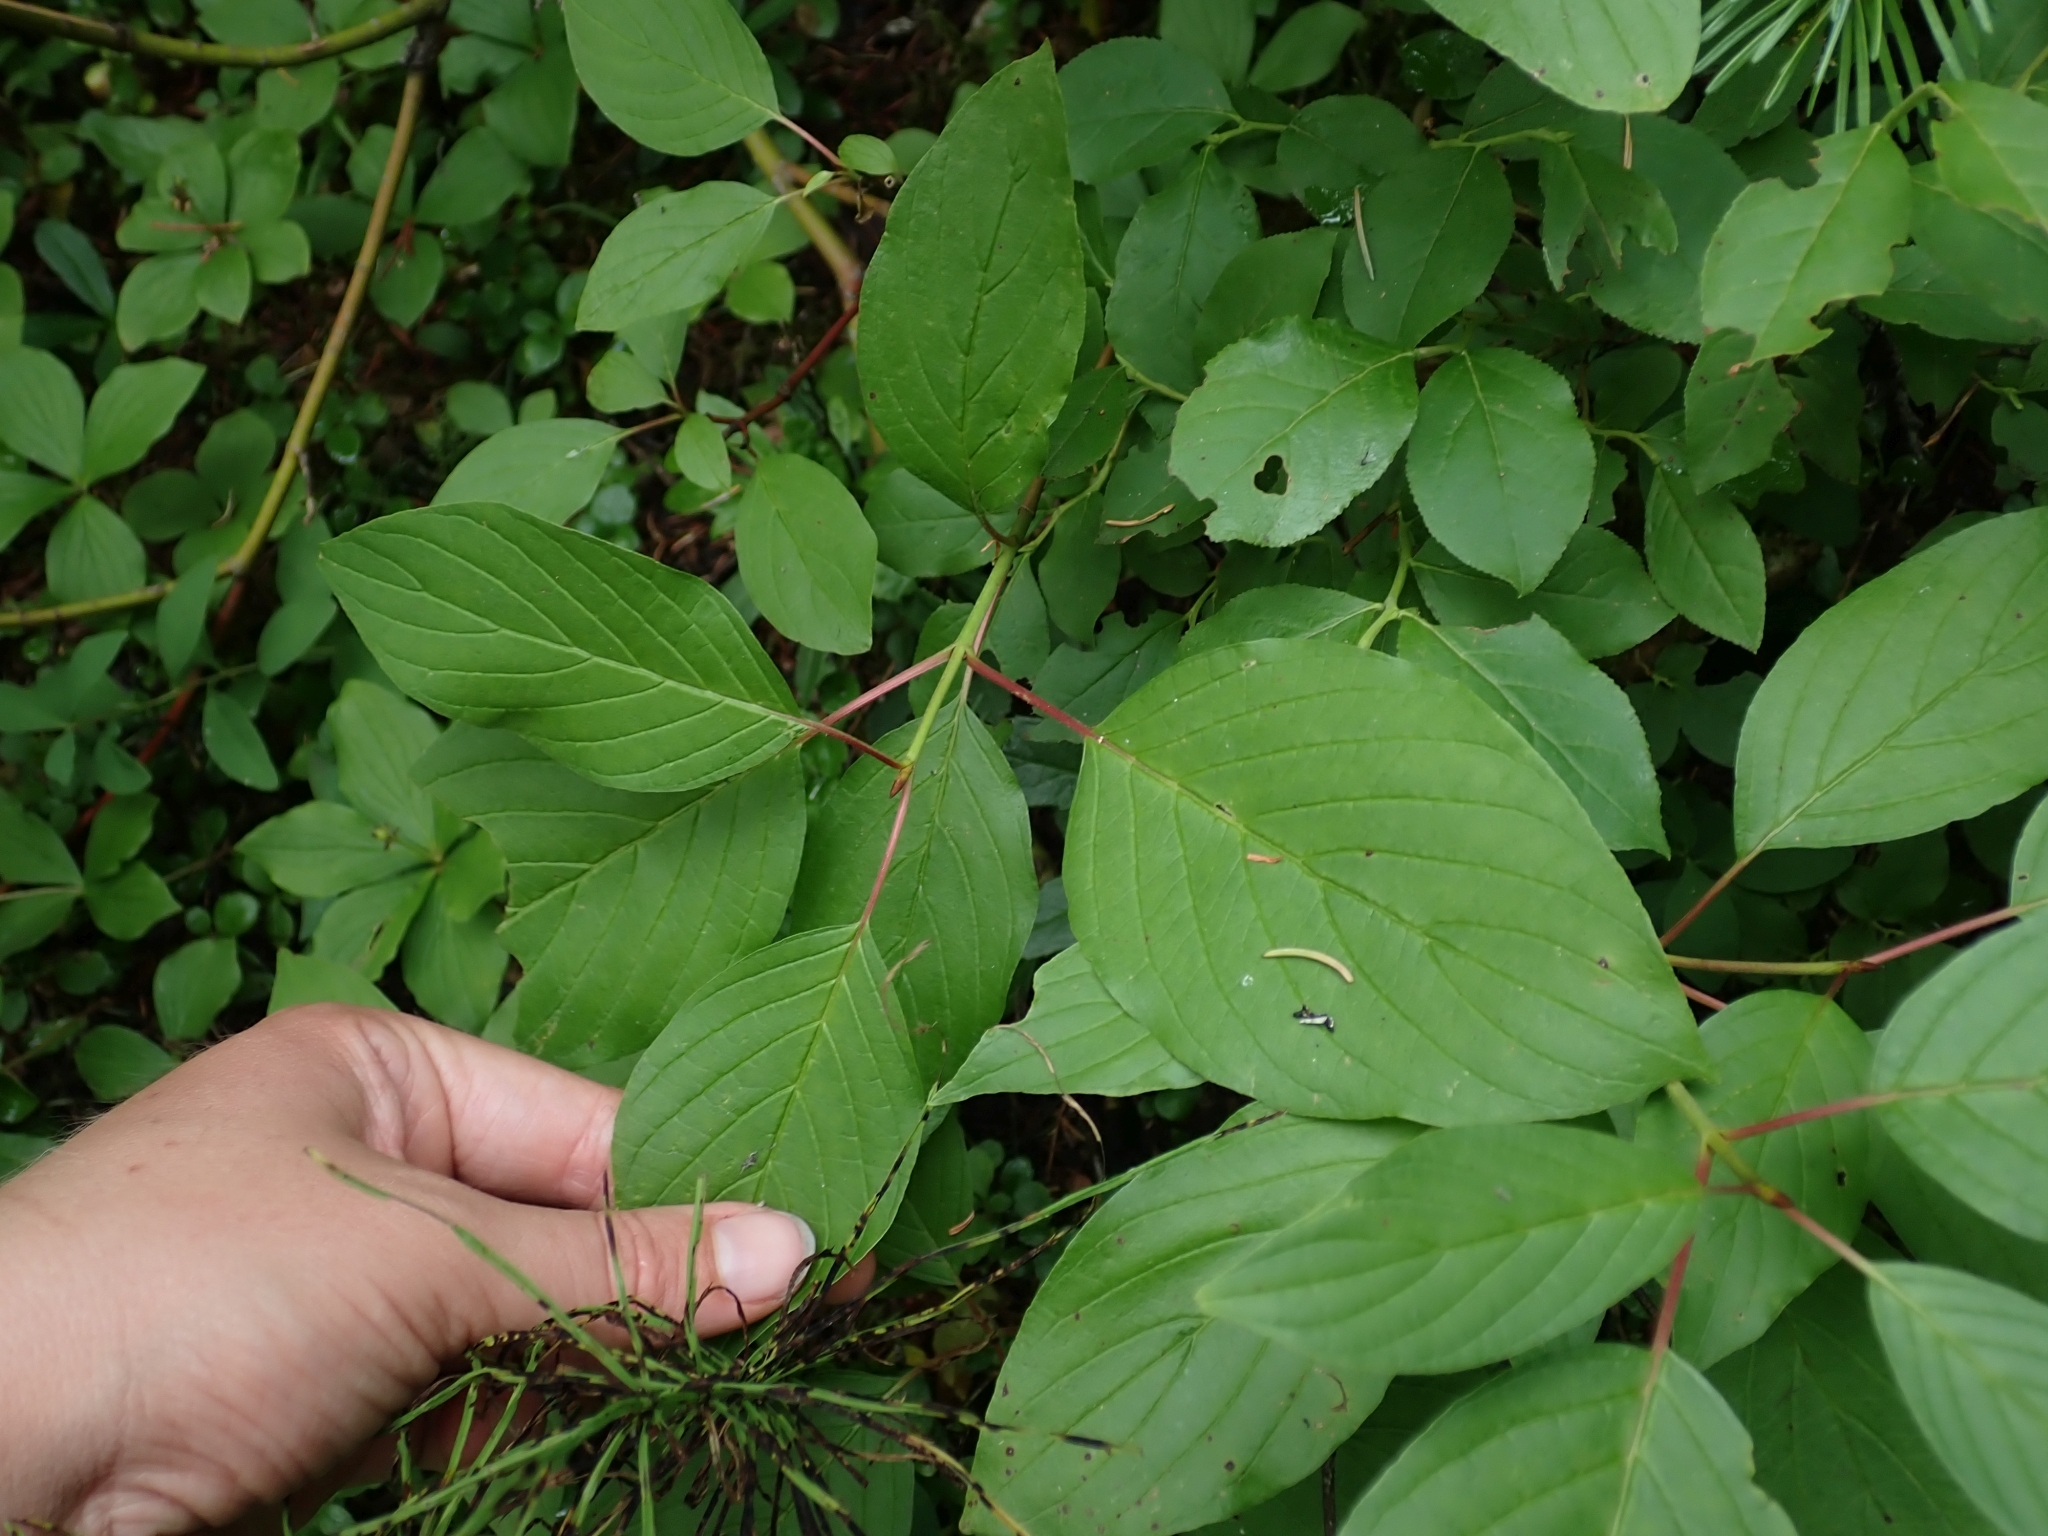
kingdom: Plantae
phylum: Tracheophyta
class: Magnoliopsida
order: Cornales
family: Cornaceae
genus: Cornus
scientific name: Cornus sericea
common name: Red-osier dogwood
